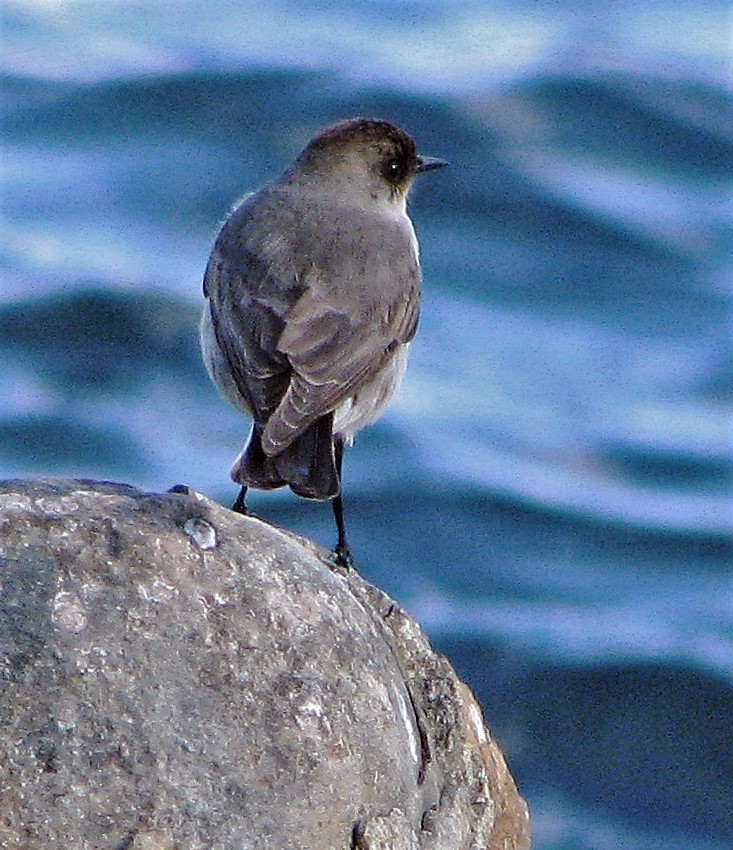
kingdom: Animalia
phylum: Chordata
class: Aves
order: Passeriformes
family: Tyrannidae
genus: Muscisaxicola
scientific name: Muscisaxicola maclovianus
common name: Dark-faced ground tyrant
